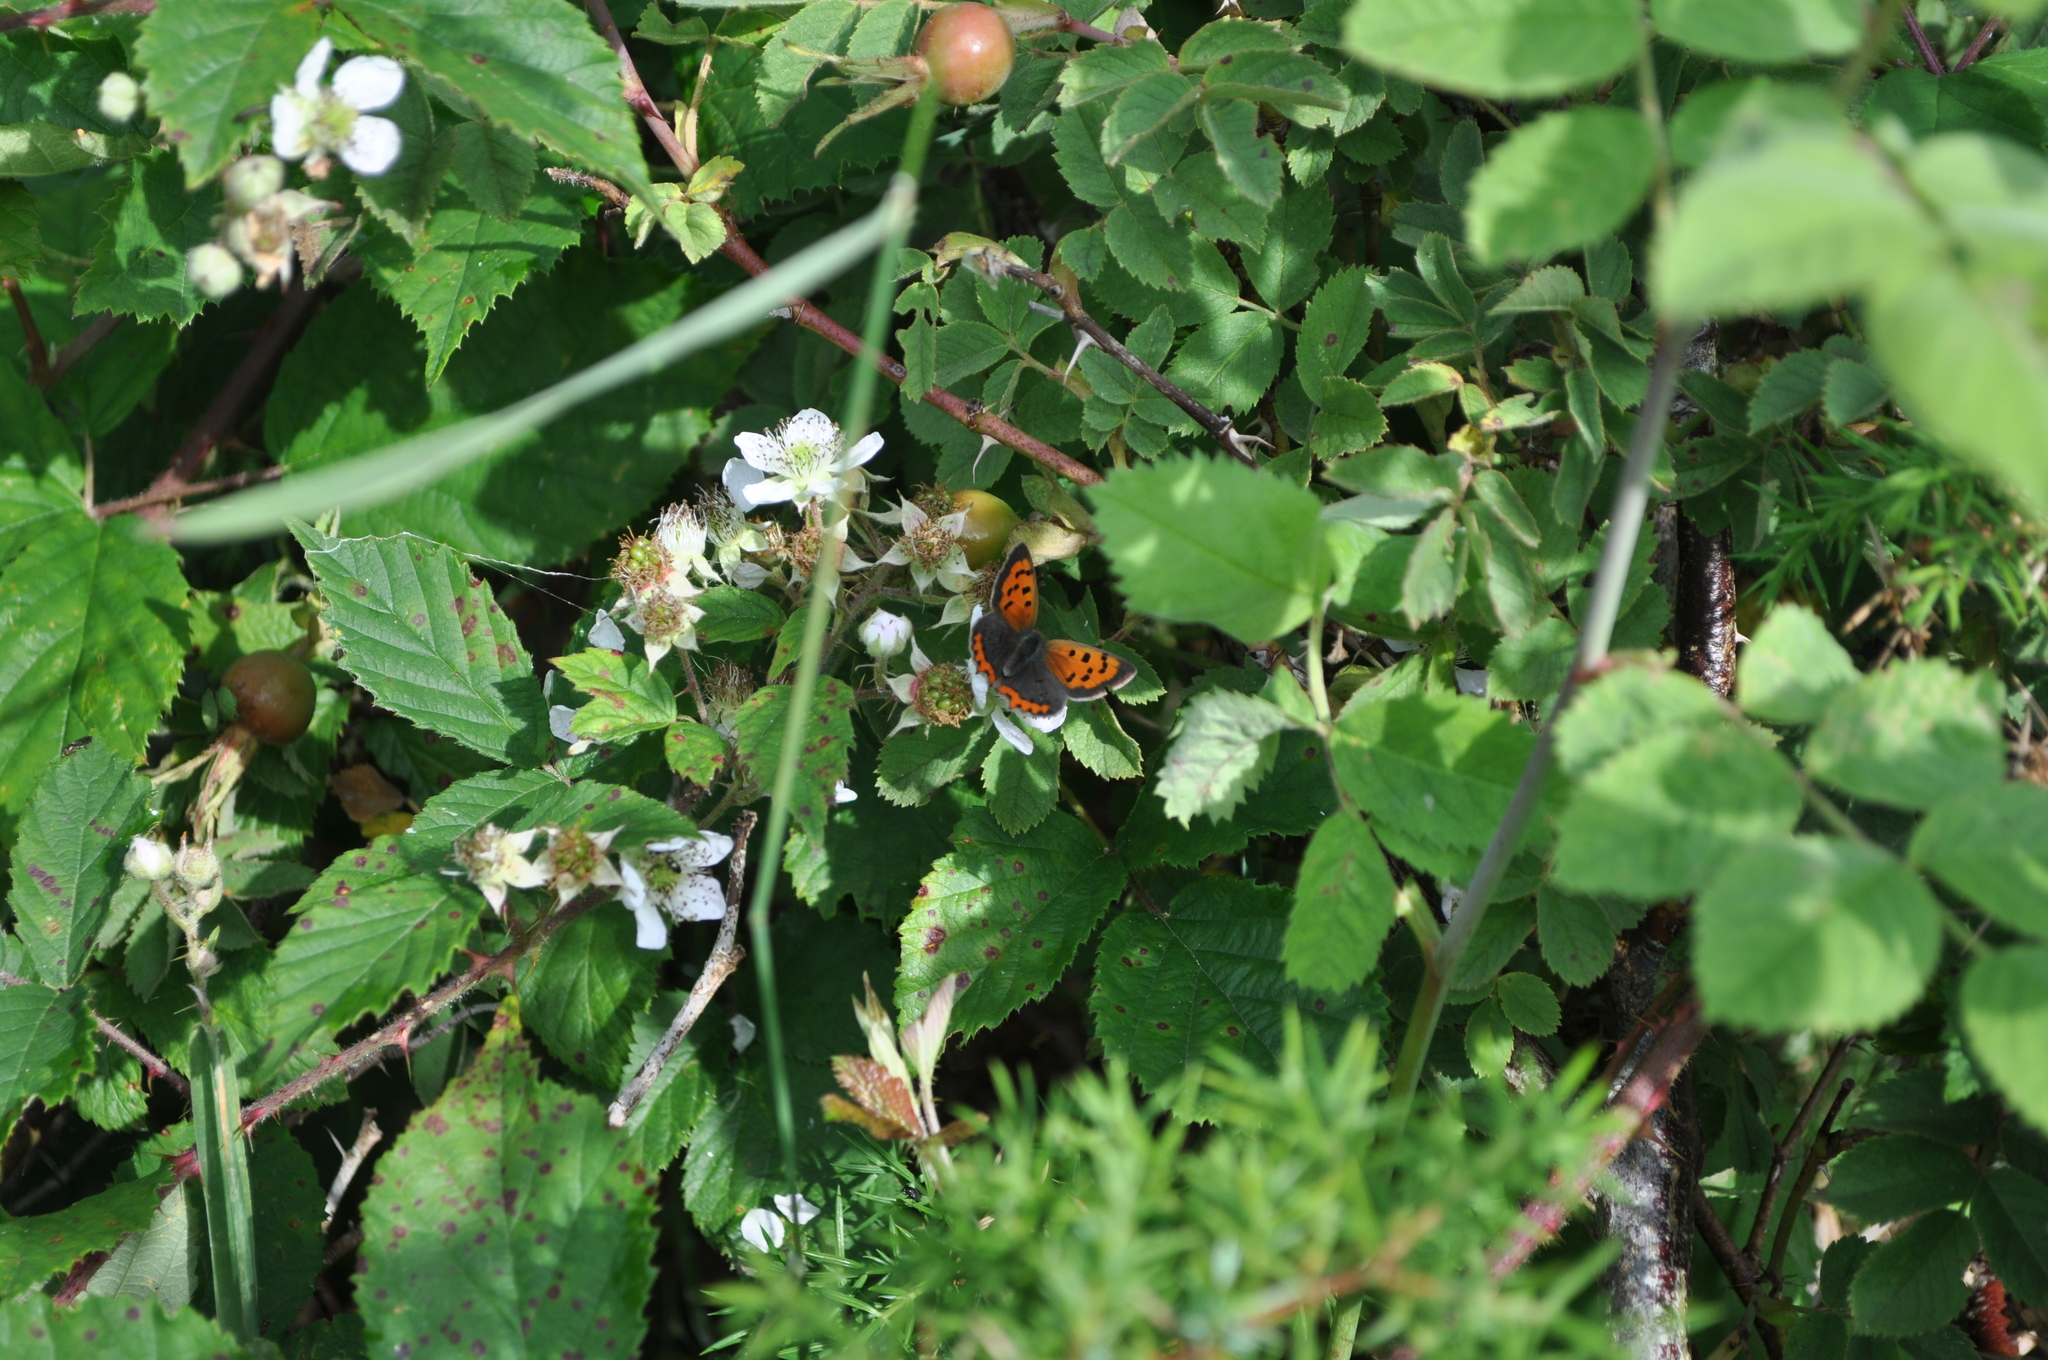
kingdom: Animalia
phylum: Arthropoda
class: Insecta
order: Lepidoptera
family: Lycaenidae
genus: Lycaena
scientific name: Lycaena phlaeas
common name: Small copper
